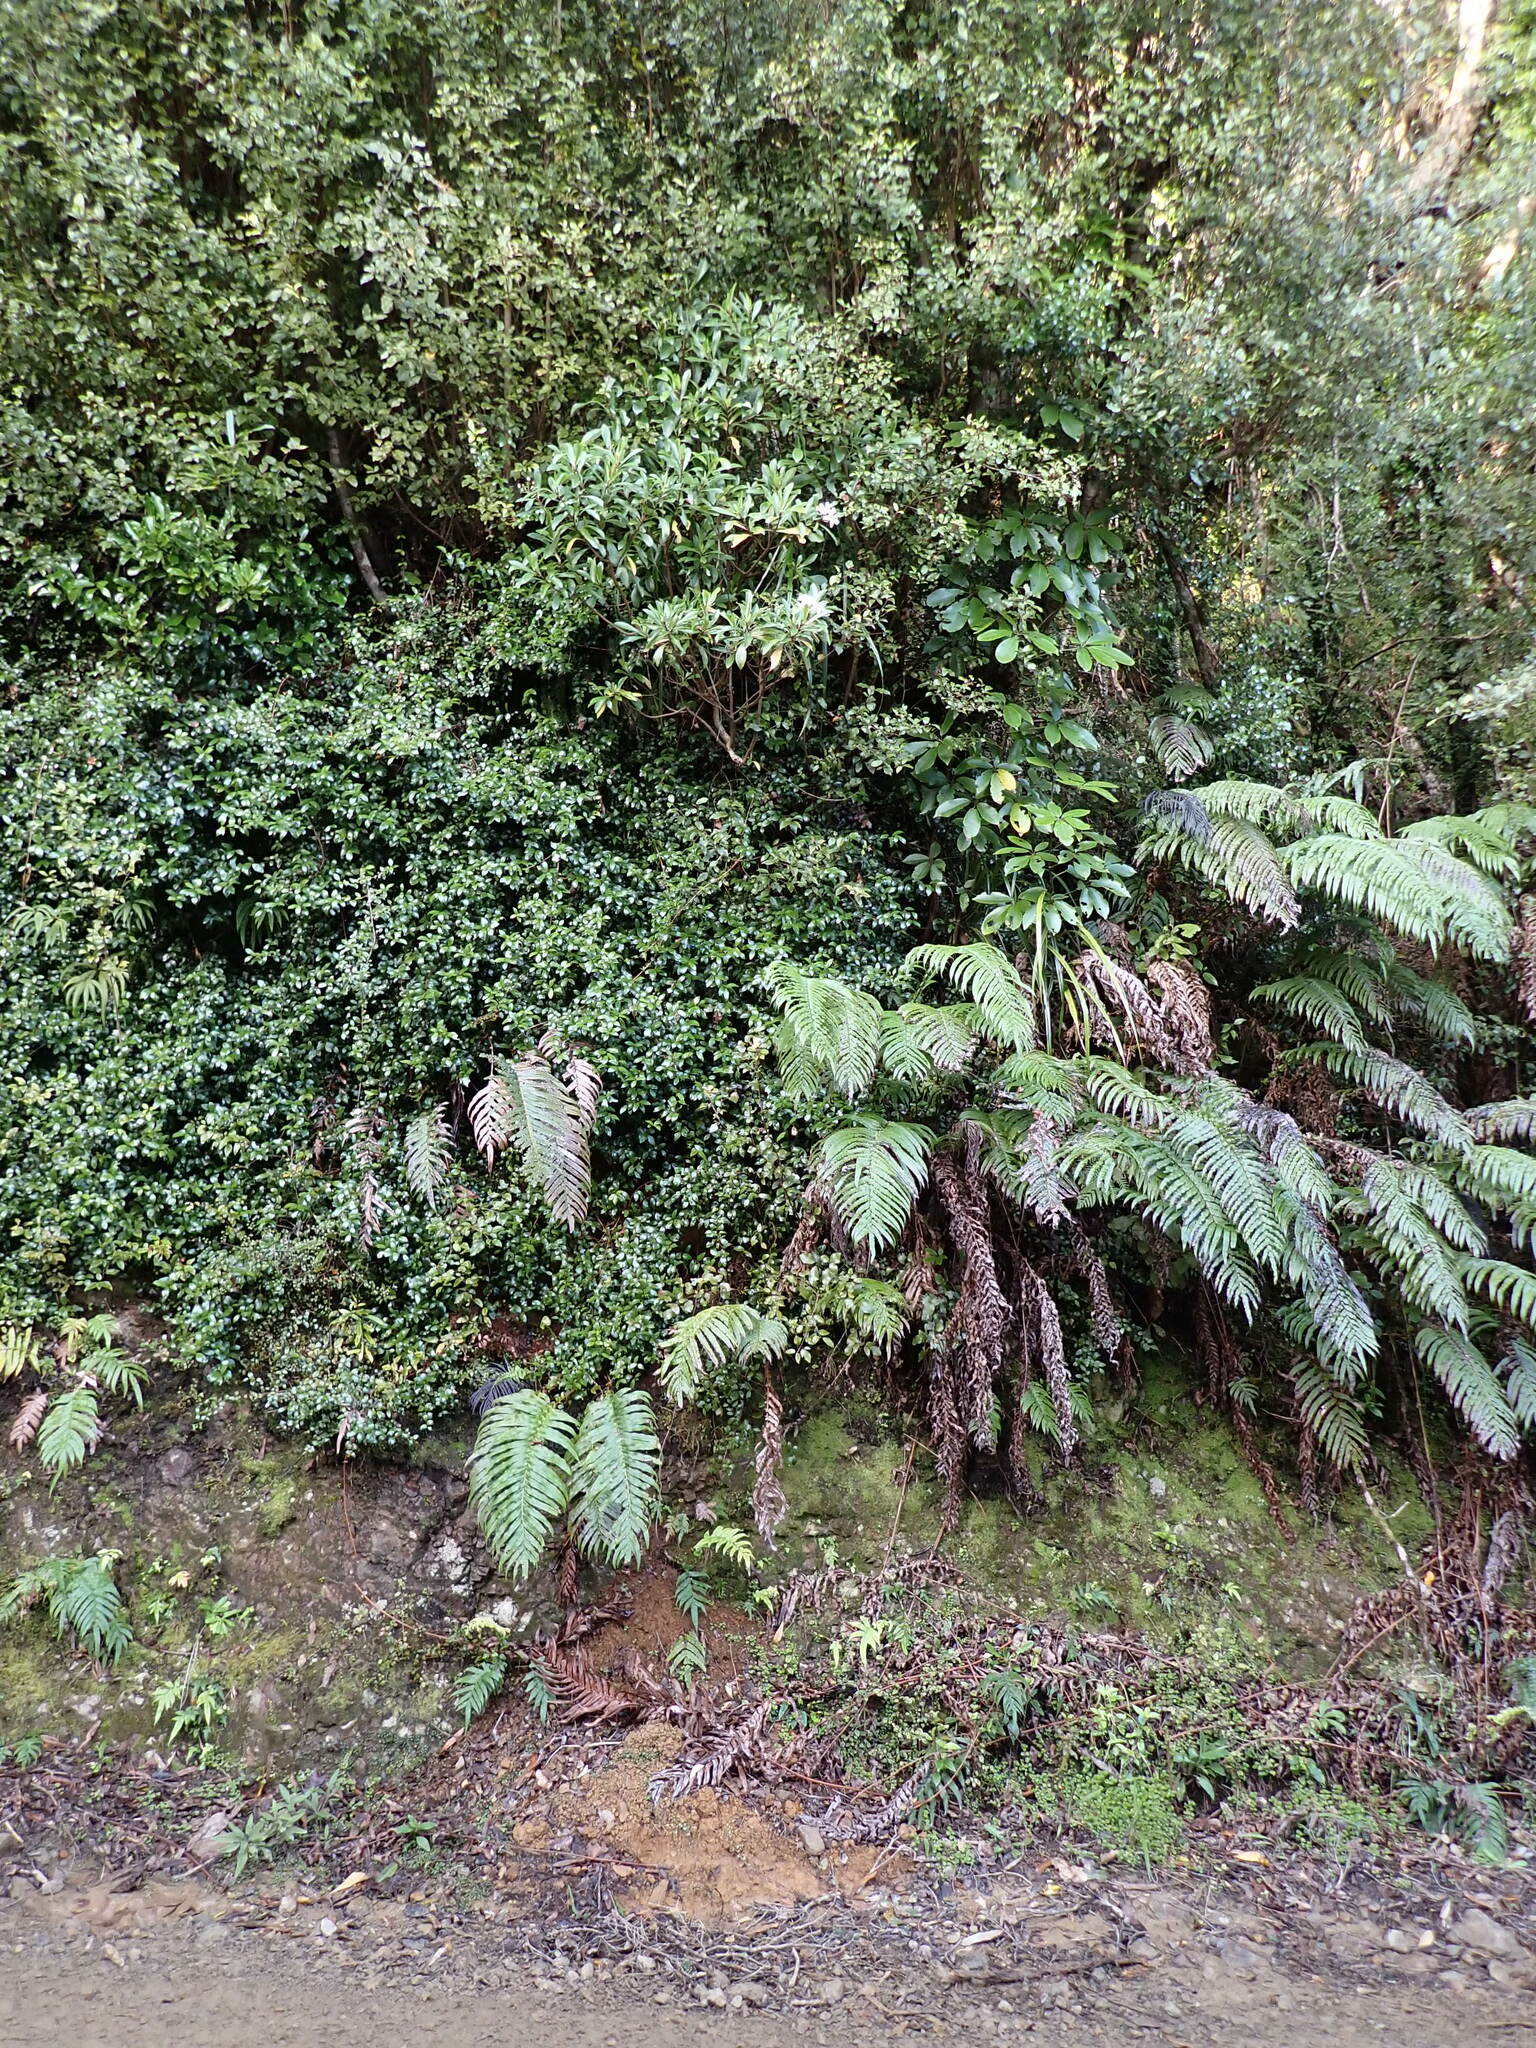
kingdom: Plantae
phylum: Tracheophyta
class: Magnoliopsida
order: Asterales
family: Asteraceae
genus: Brachyglottis
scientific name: Brachyglottis kirkii
